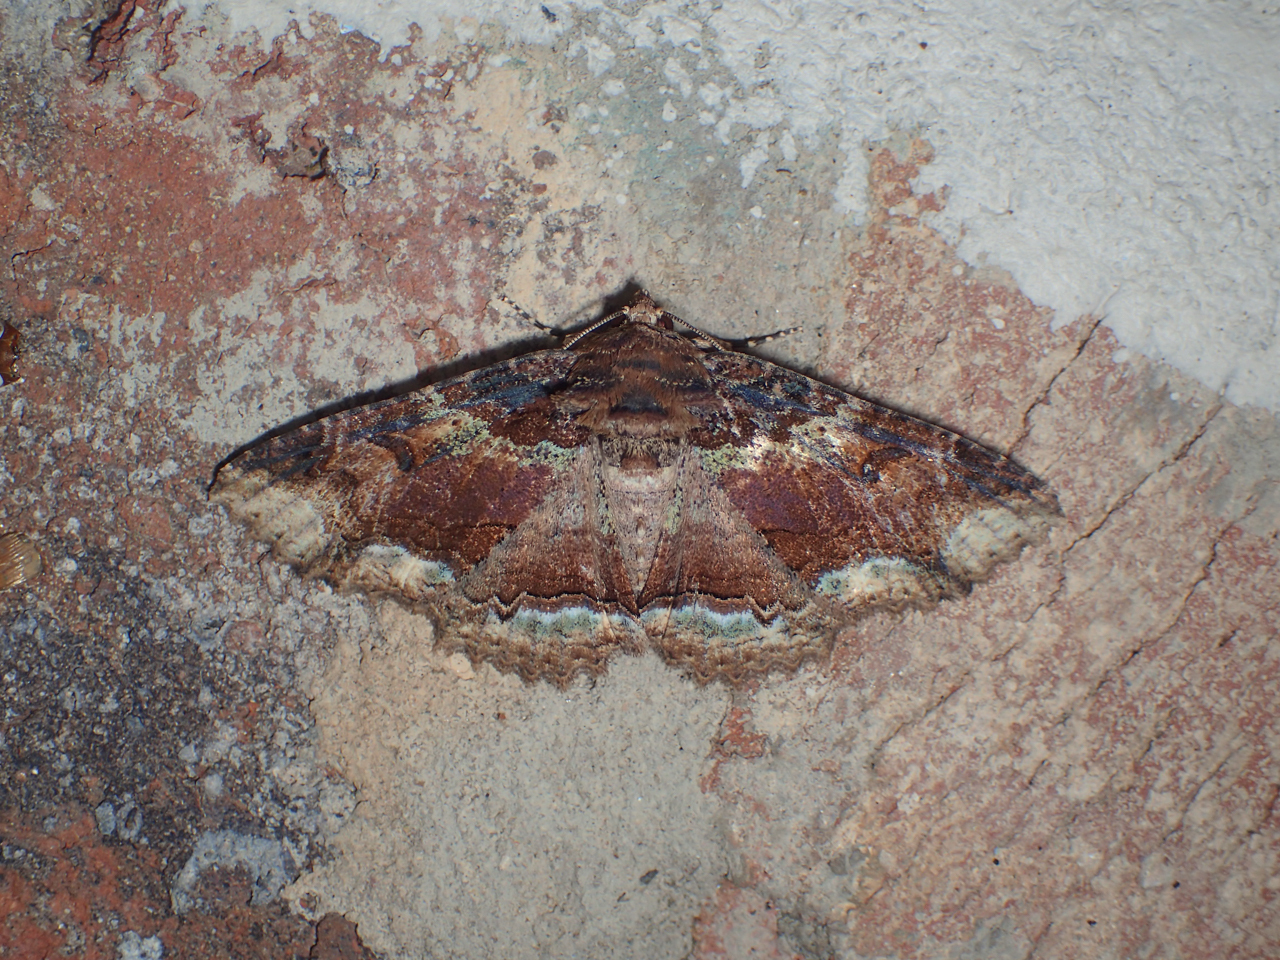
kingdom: Animalia
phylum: Arthropoda
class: Insecta
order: Lepidoptera
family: Erebidae
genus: Zale
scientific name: Zale minerea
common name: Colorful zale moth
